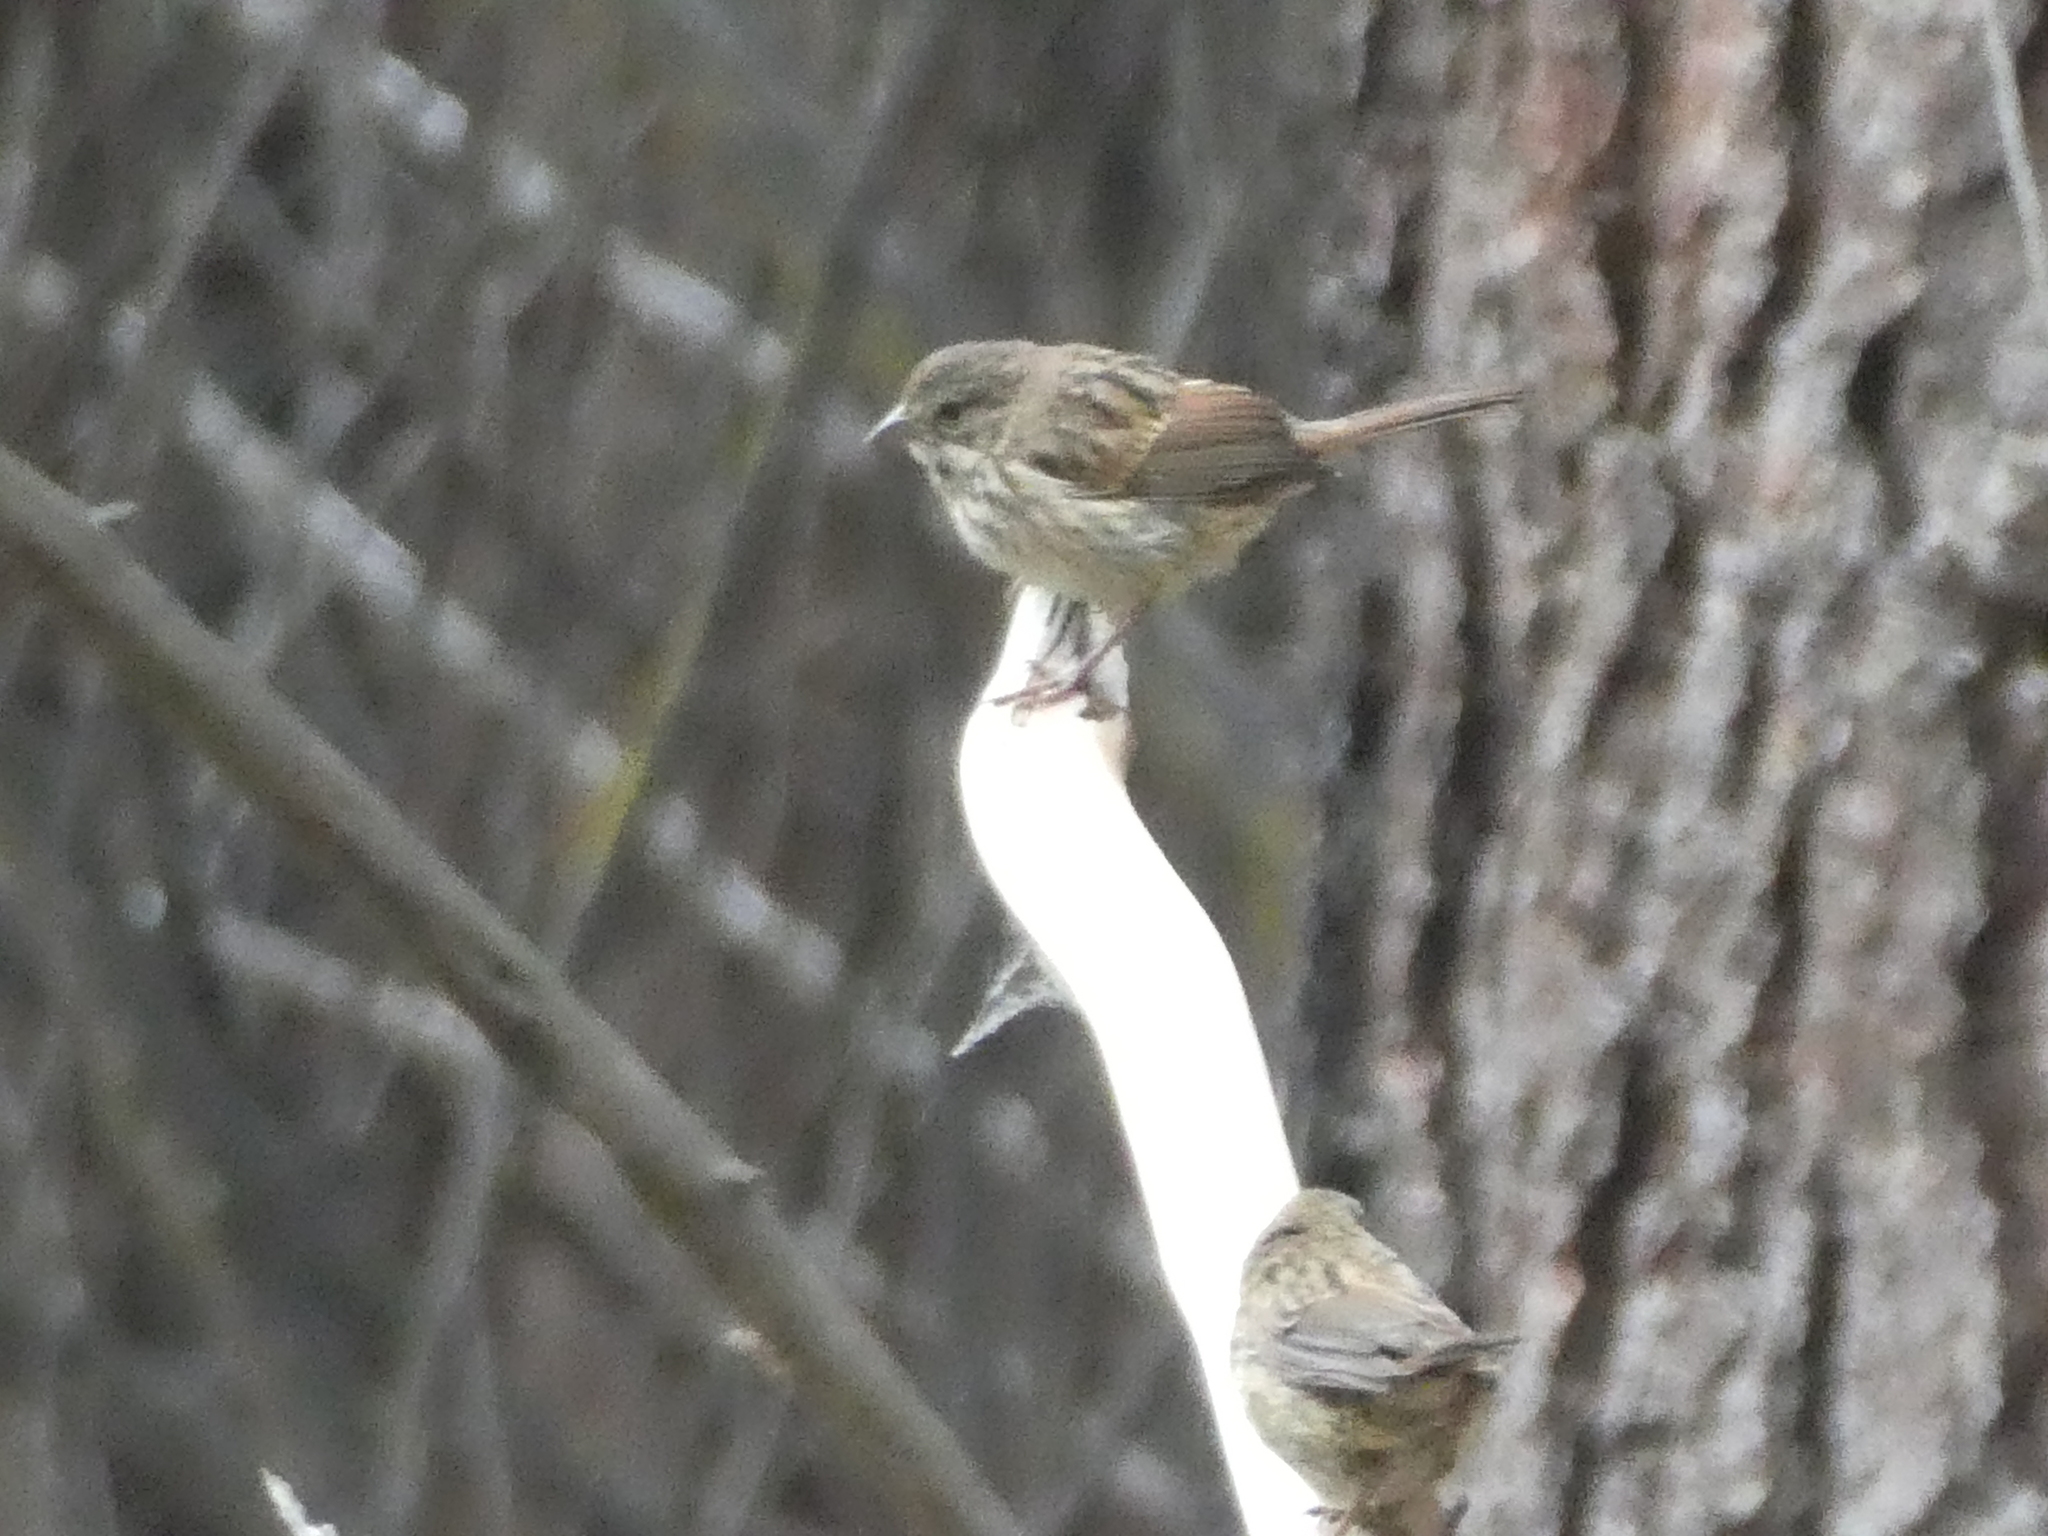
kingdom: Animalia
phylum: Chordata
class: Aves
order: Passeriformes
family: Passerellidae
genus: Melospiza
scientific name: Melospiza melodia
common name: Song sparrow
